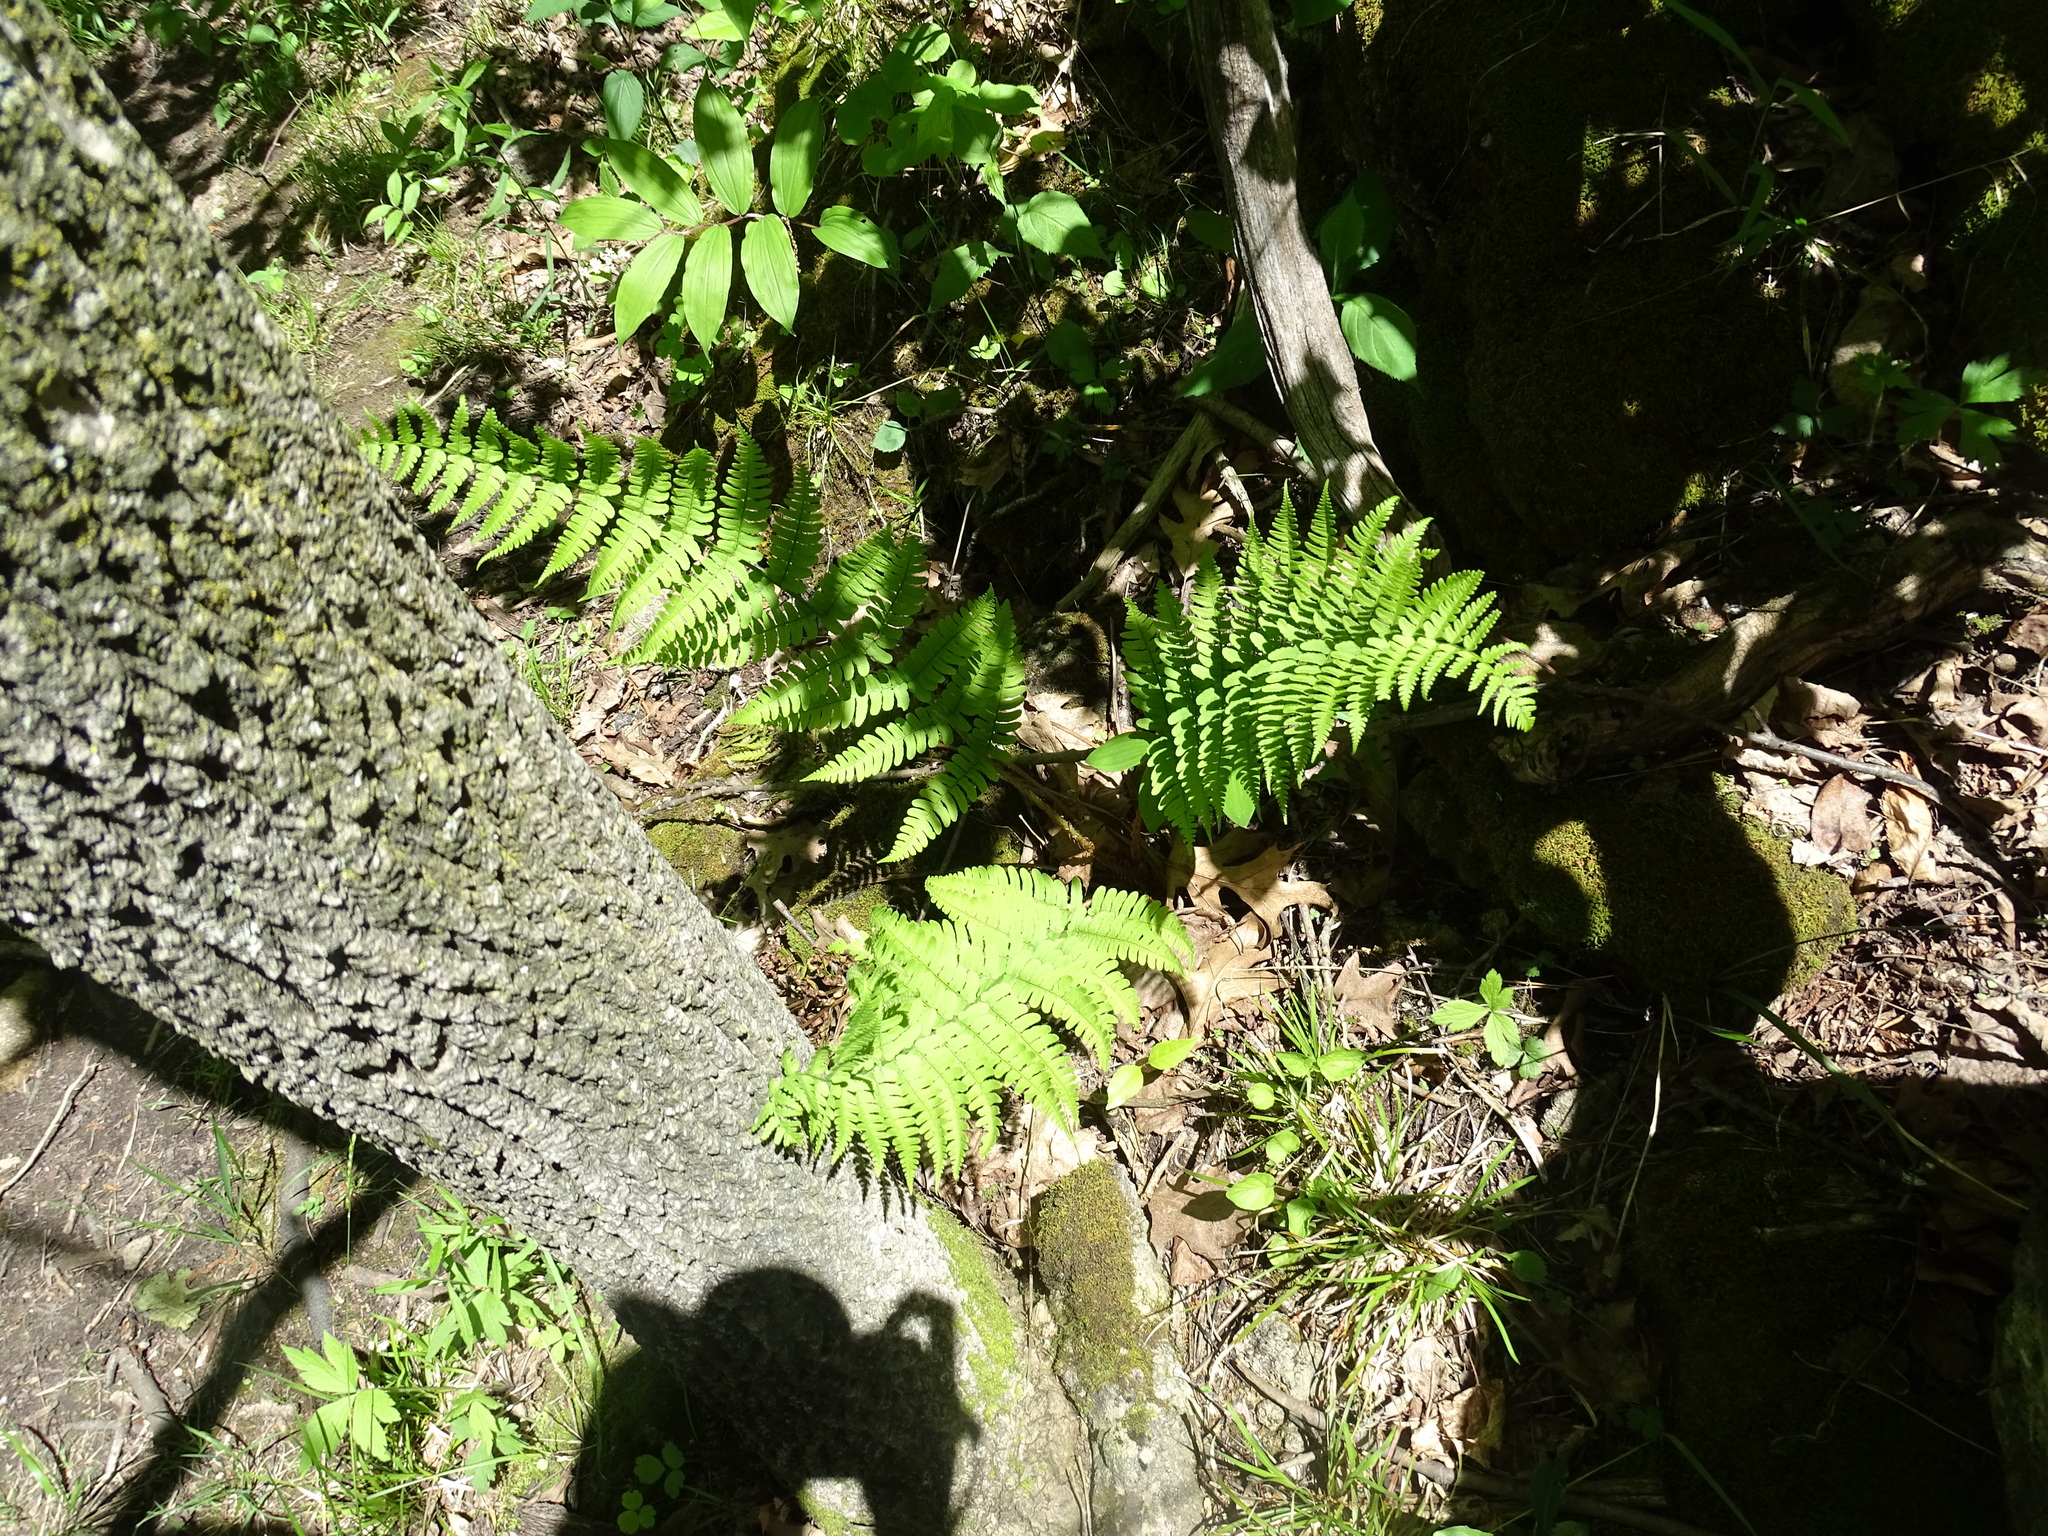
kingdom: Plantae
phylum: Tracheophyta
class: Polypodiopsida
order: Polypodiales
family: Dryopteridaceae
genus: Dryopteris
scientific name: Dryopteris marginalis
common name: Marginal wood fern
